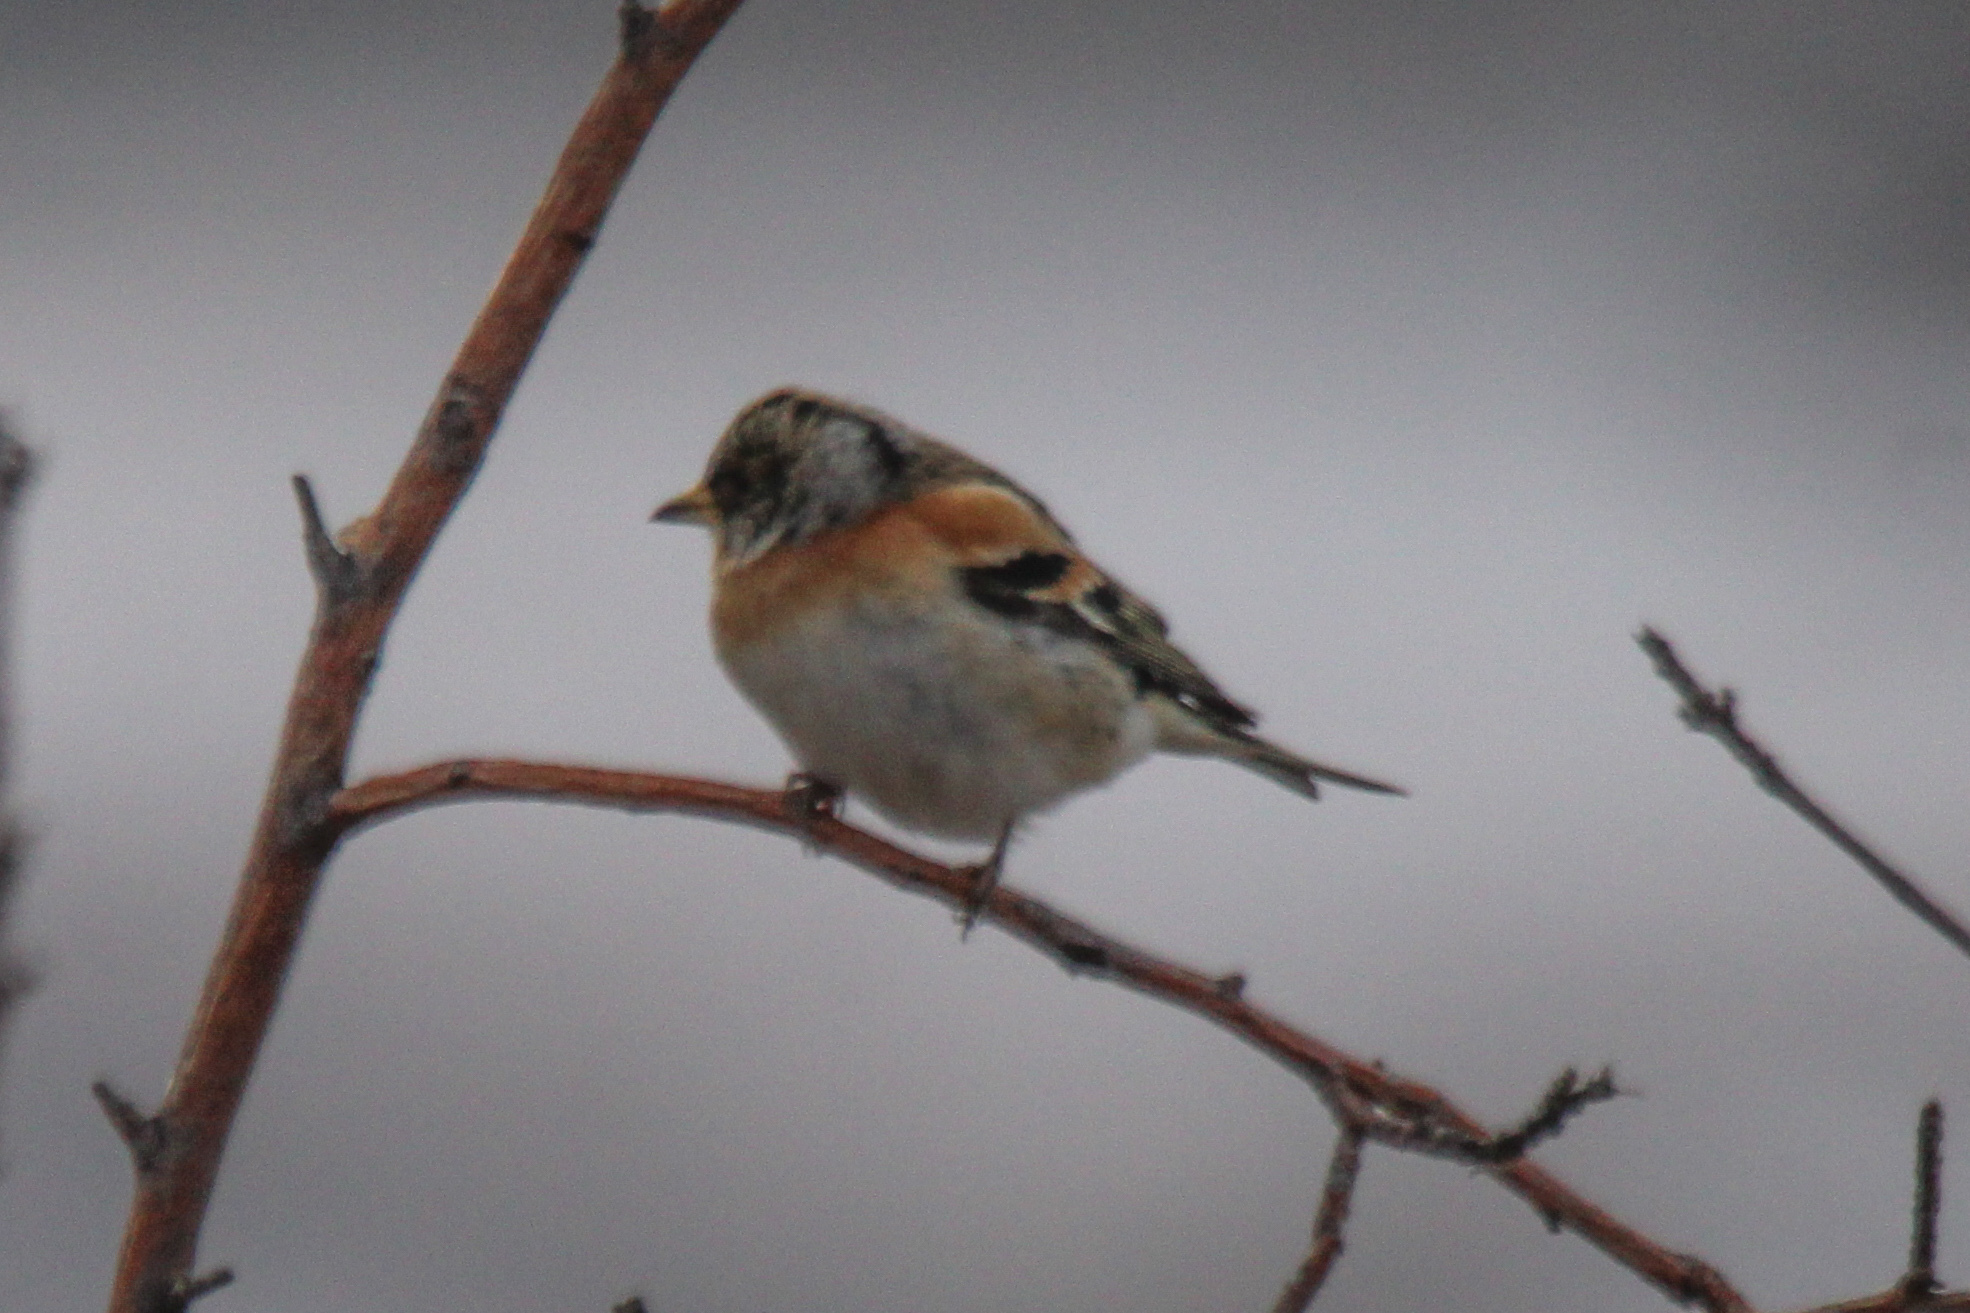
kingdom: Animalia
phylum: Chordata
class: Aves
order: Passeriformes
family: Fringillidae
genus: Fringilla
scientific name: Fringilla montifringilla
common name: Brambling
